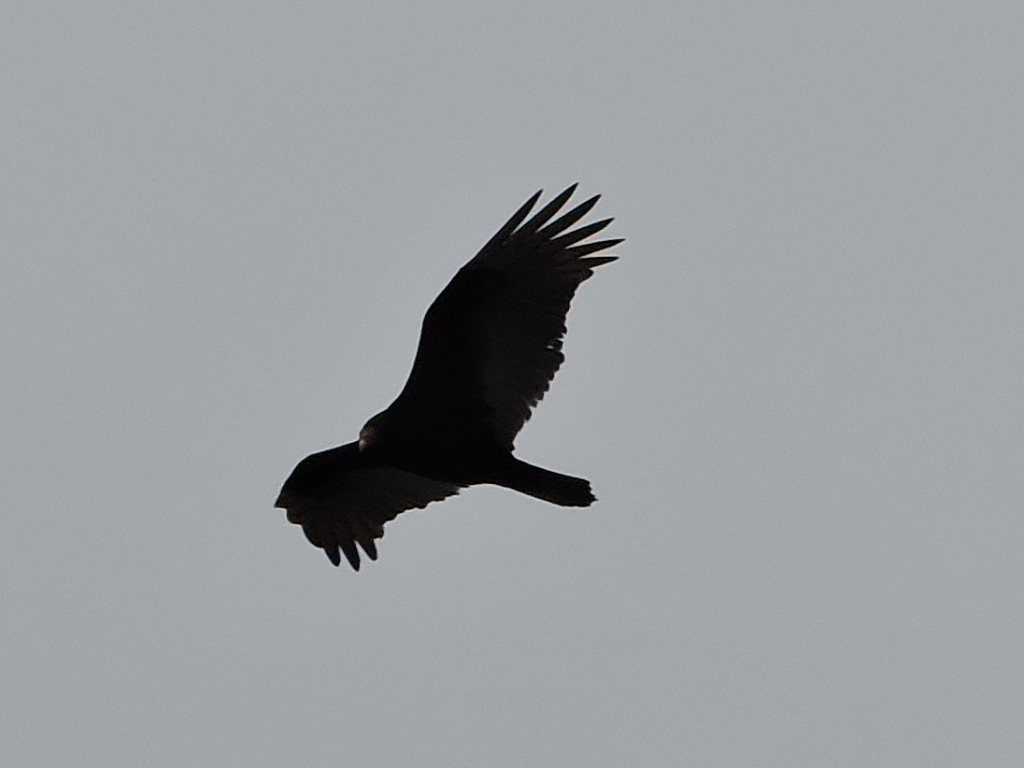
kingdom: Animalia
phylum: Chordata
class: Aves
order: Accipitriformes
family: Cathartidae
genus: Cathartes
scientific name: Cathartes aura
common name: Turkey vulture
